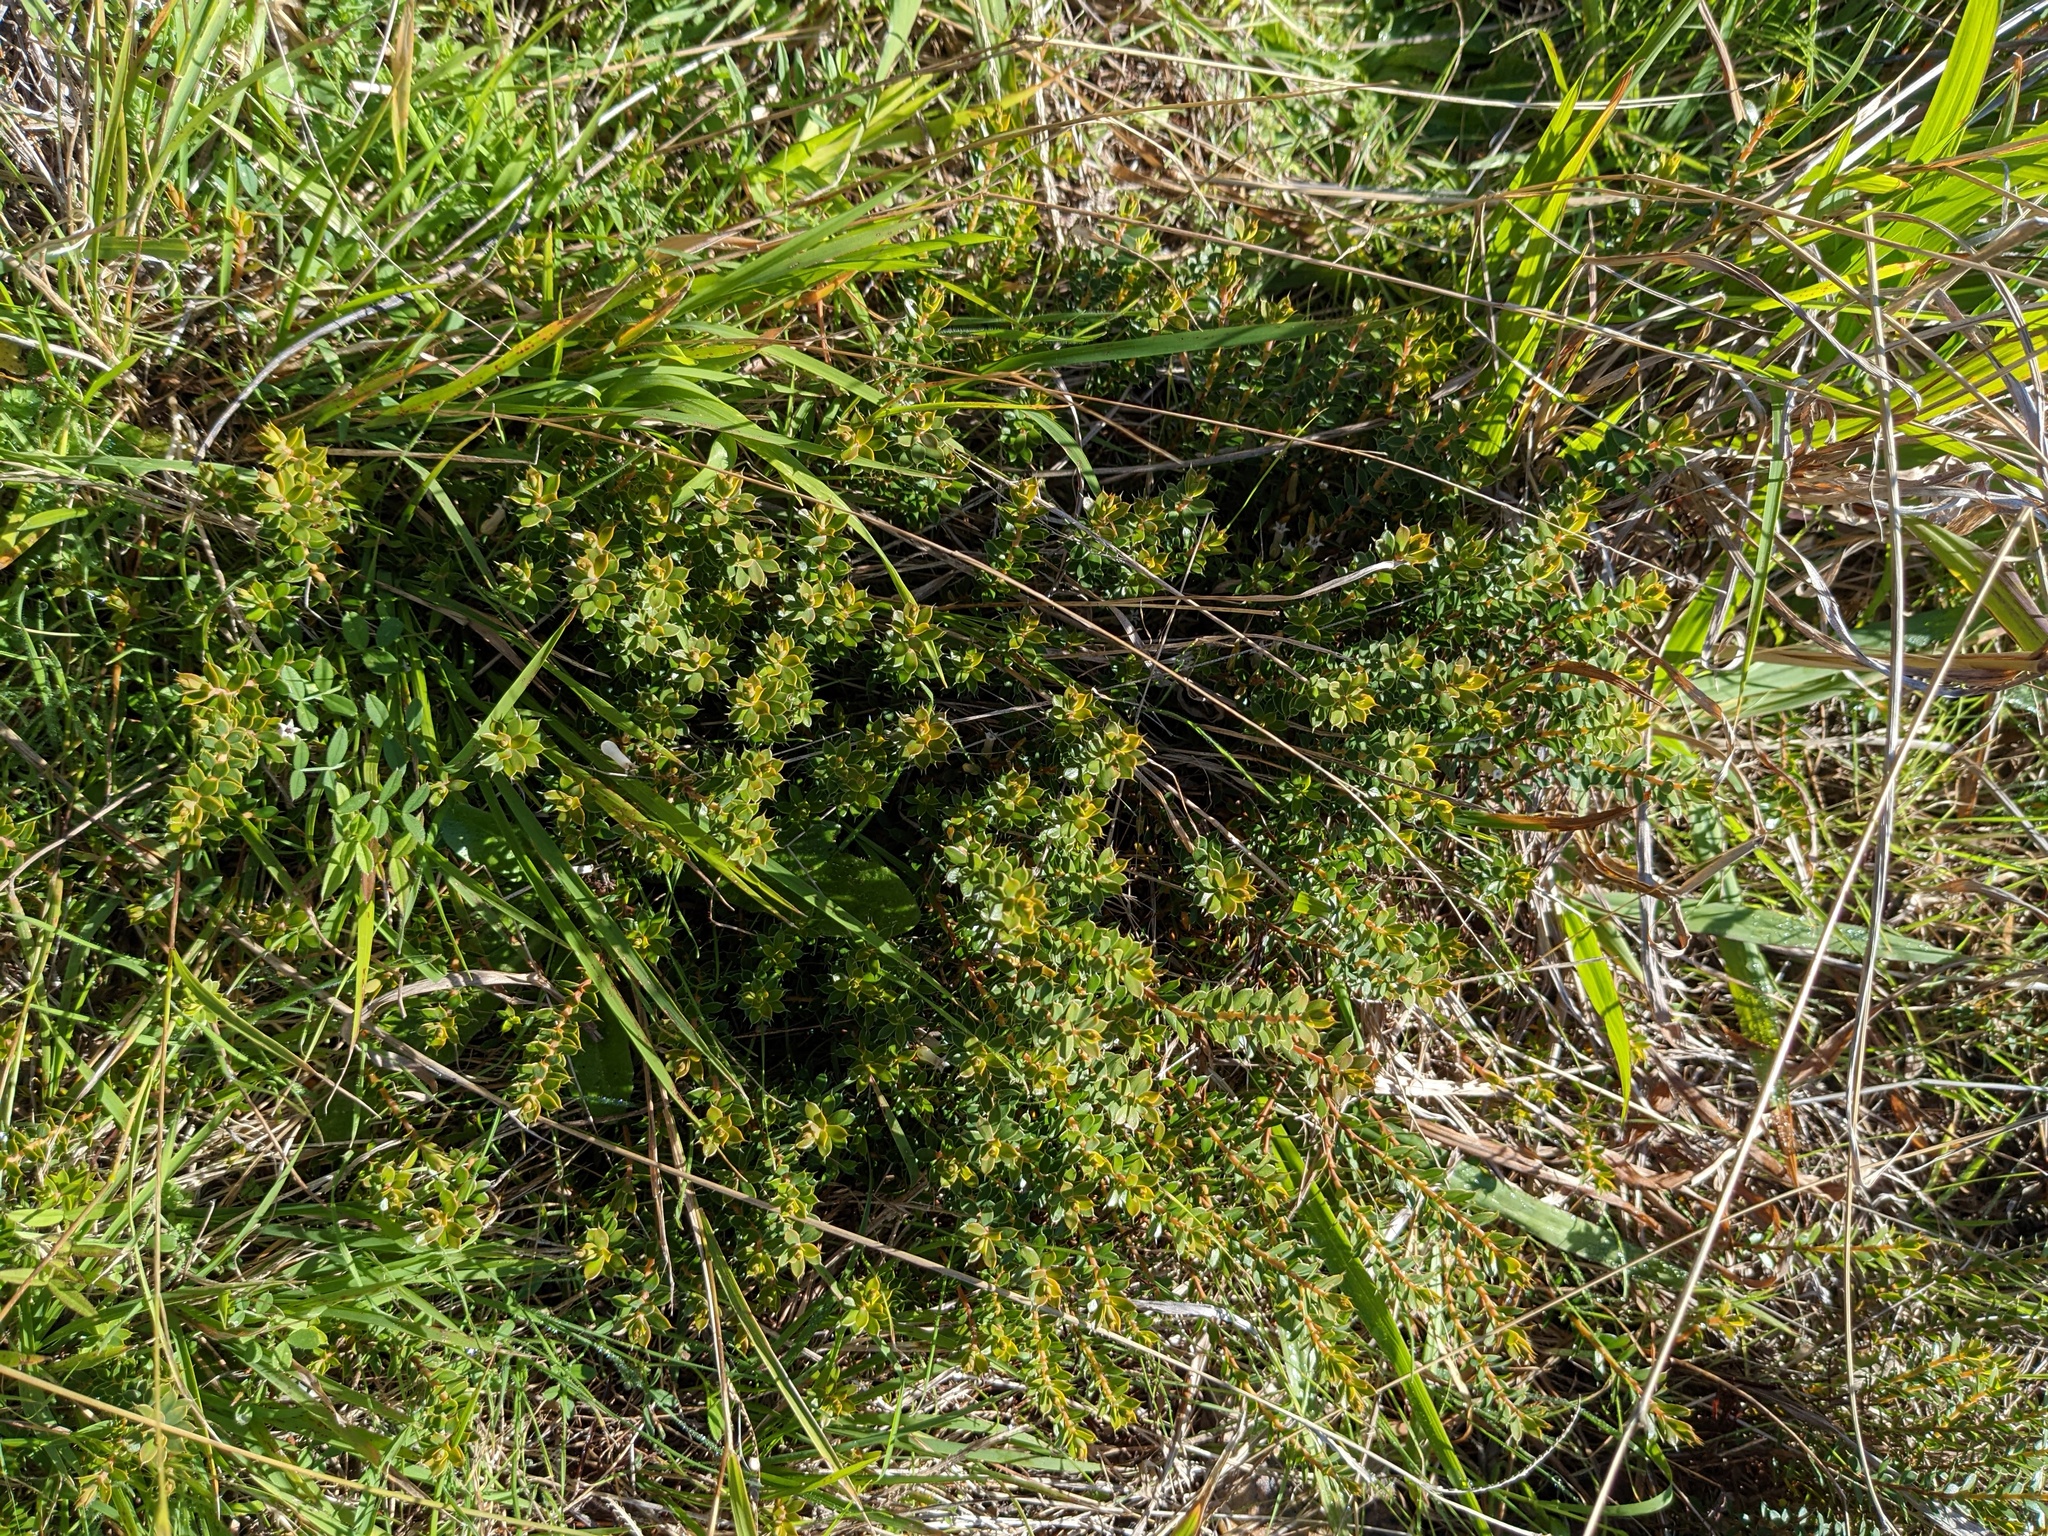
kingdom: Plantae
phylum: Tracheophyta
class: Magnoliopsida
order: Ericales
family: Ericaceae
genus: Styphelia
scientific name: Styphelia nesophila
